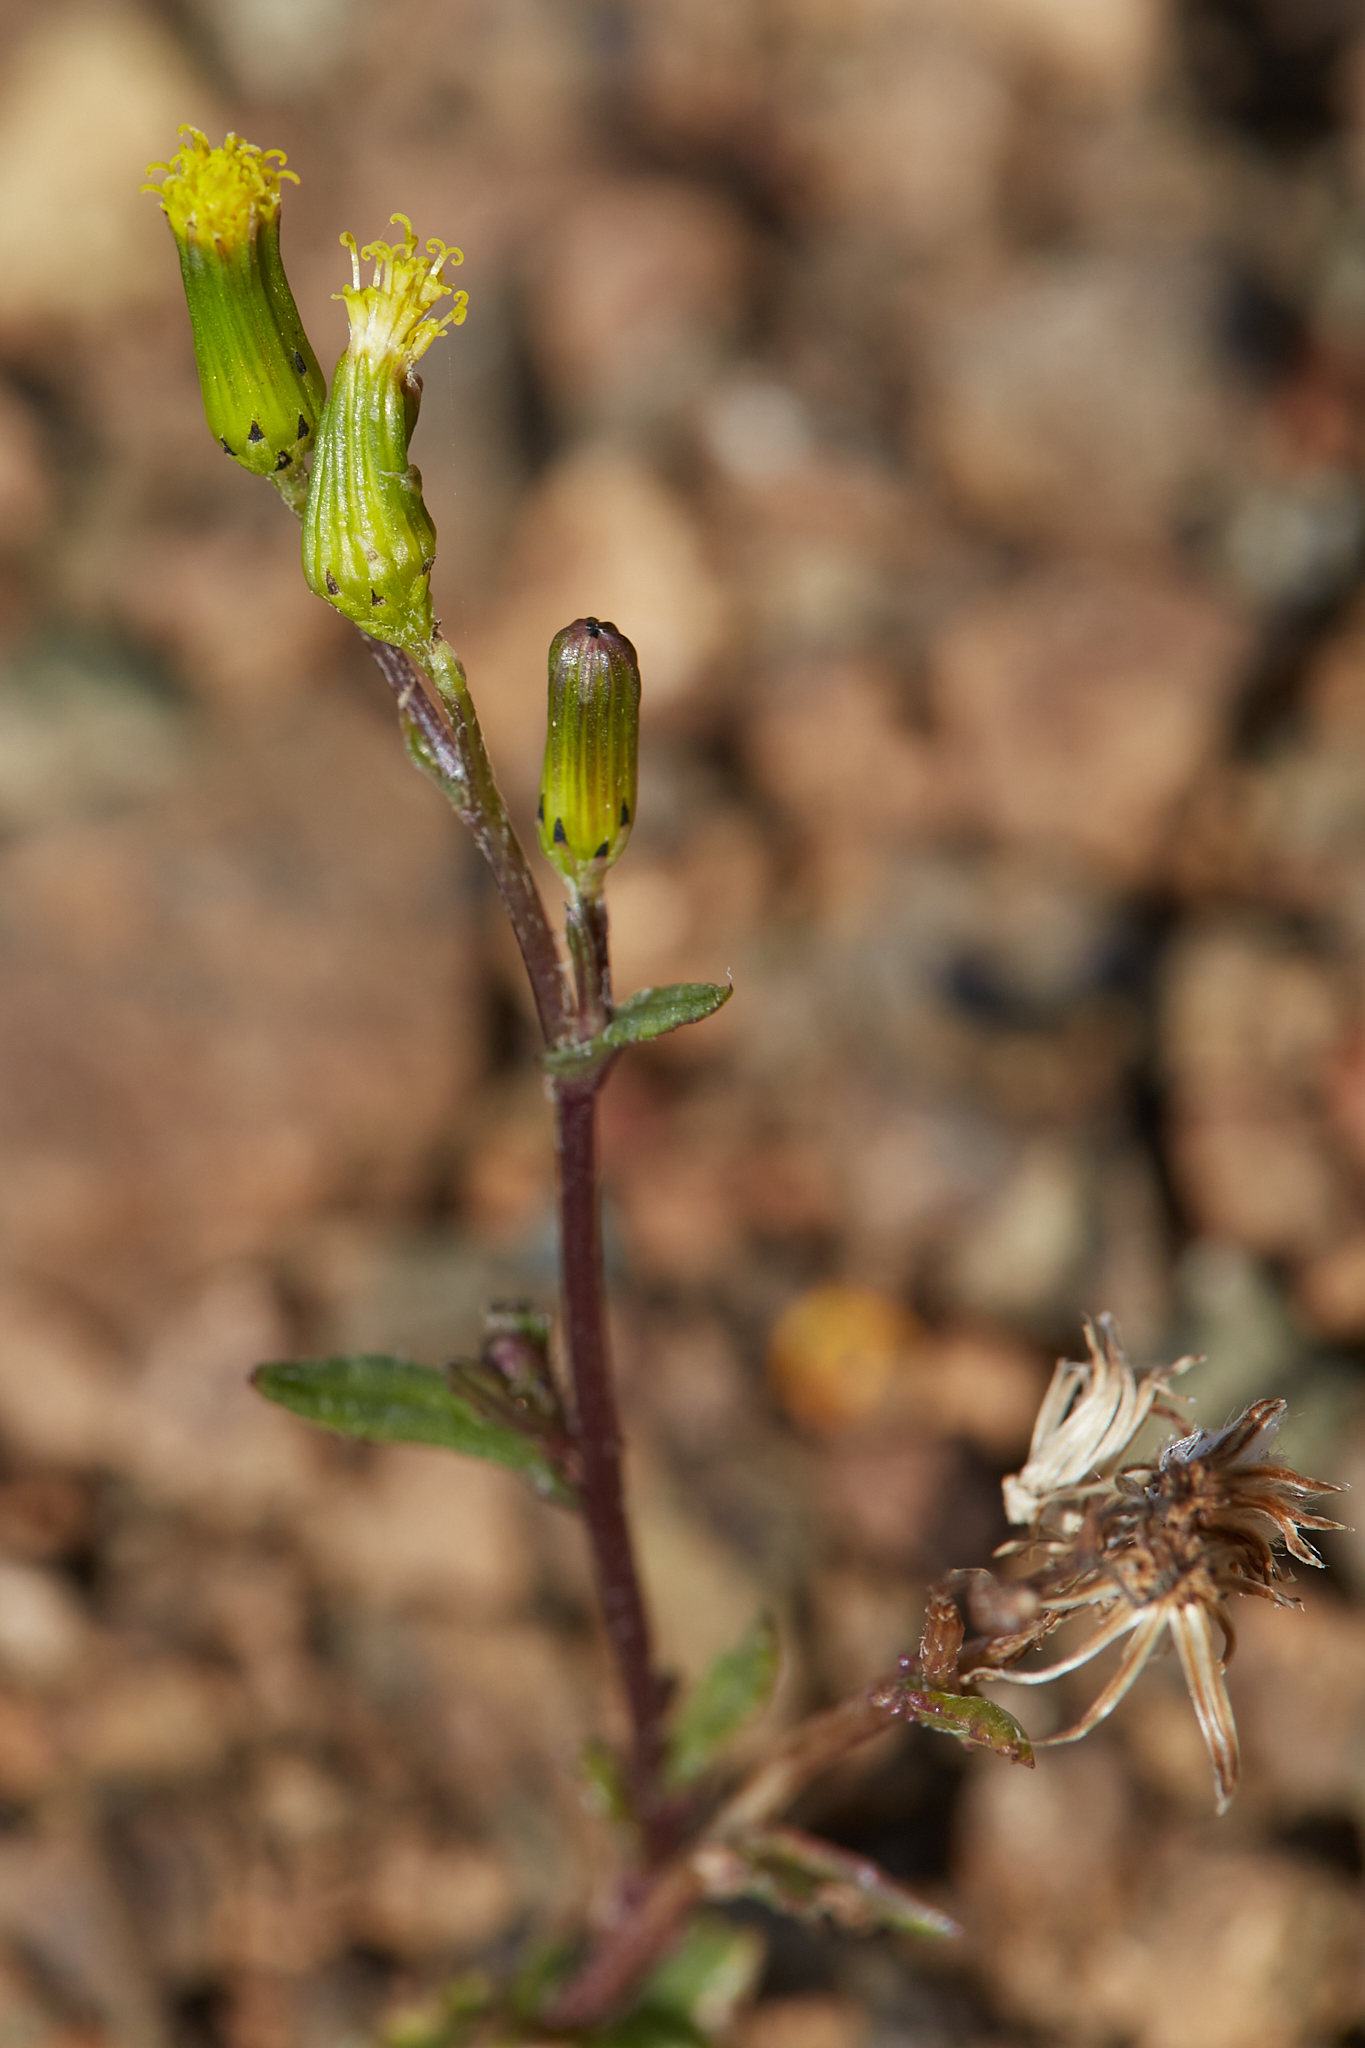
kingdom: Plantae
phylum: Tracheophyta
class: Magnoliopsida
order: Asterales
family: Asteraceae
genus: Senecio
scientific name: Senecio vulgaris
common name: Old-man-in-the-spring
